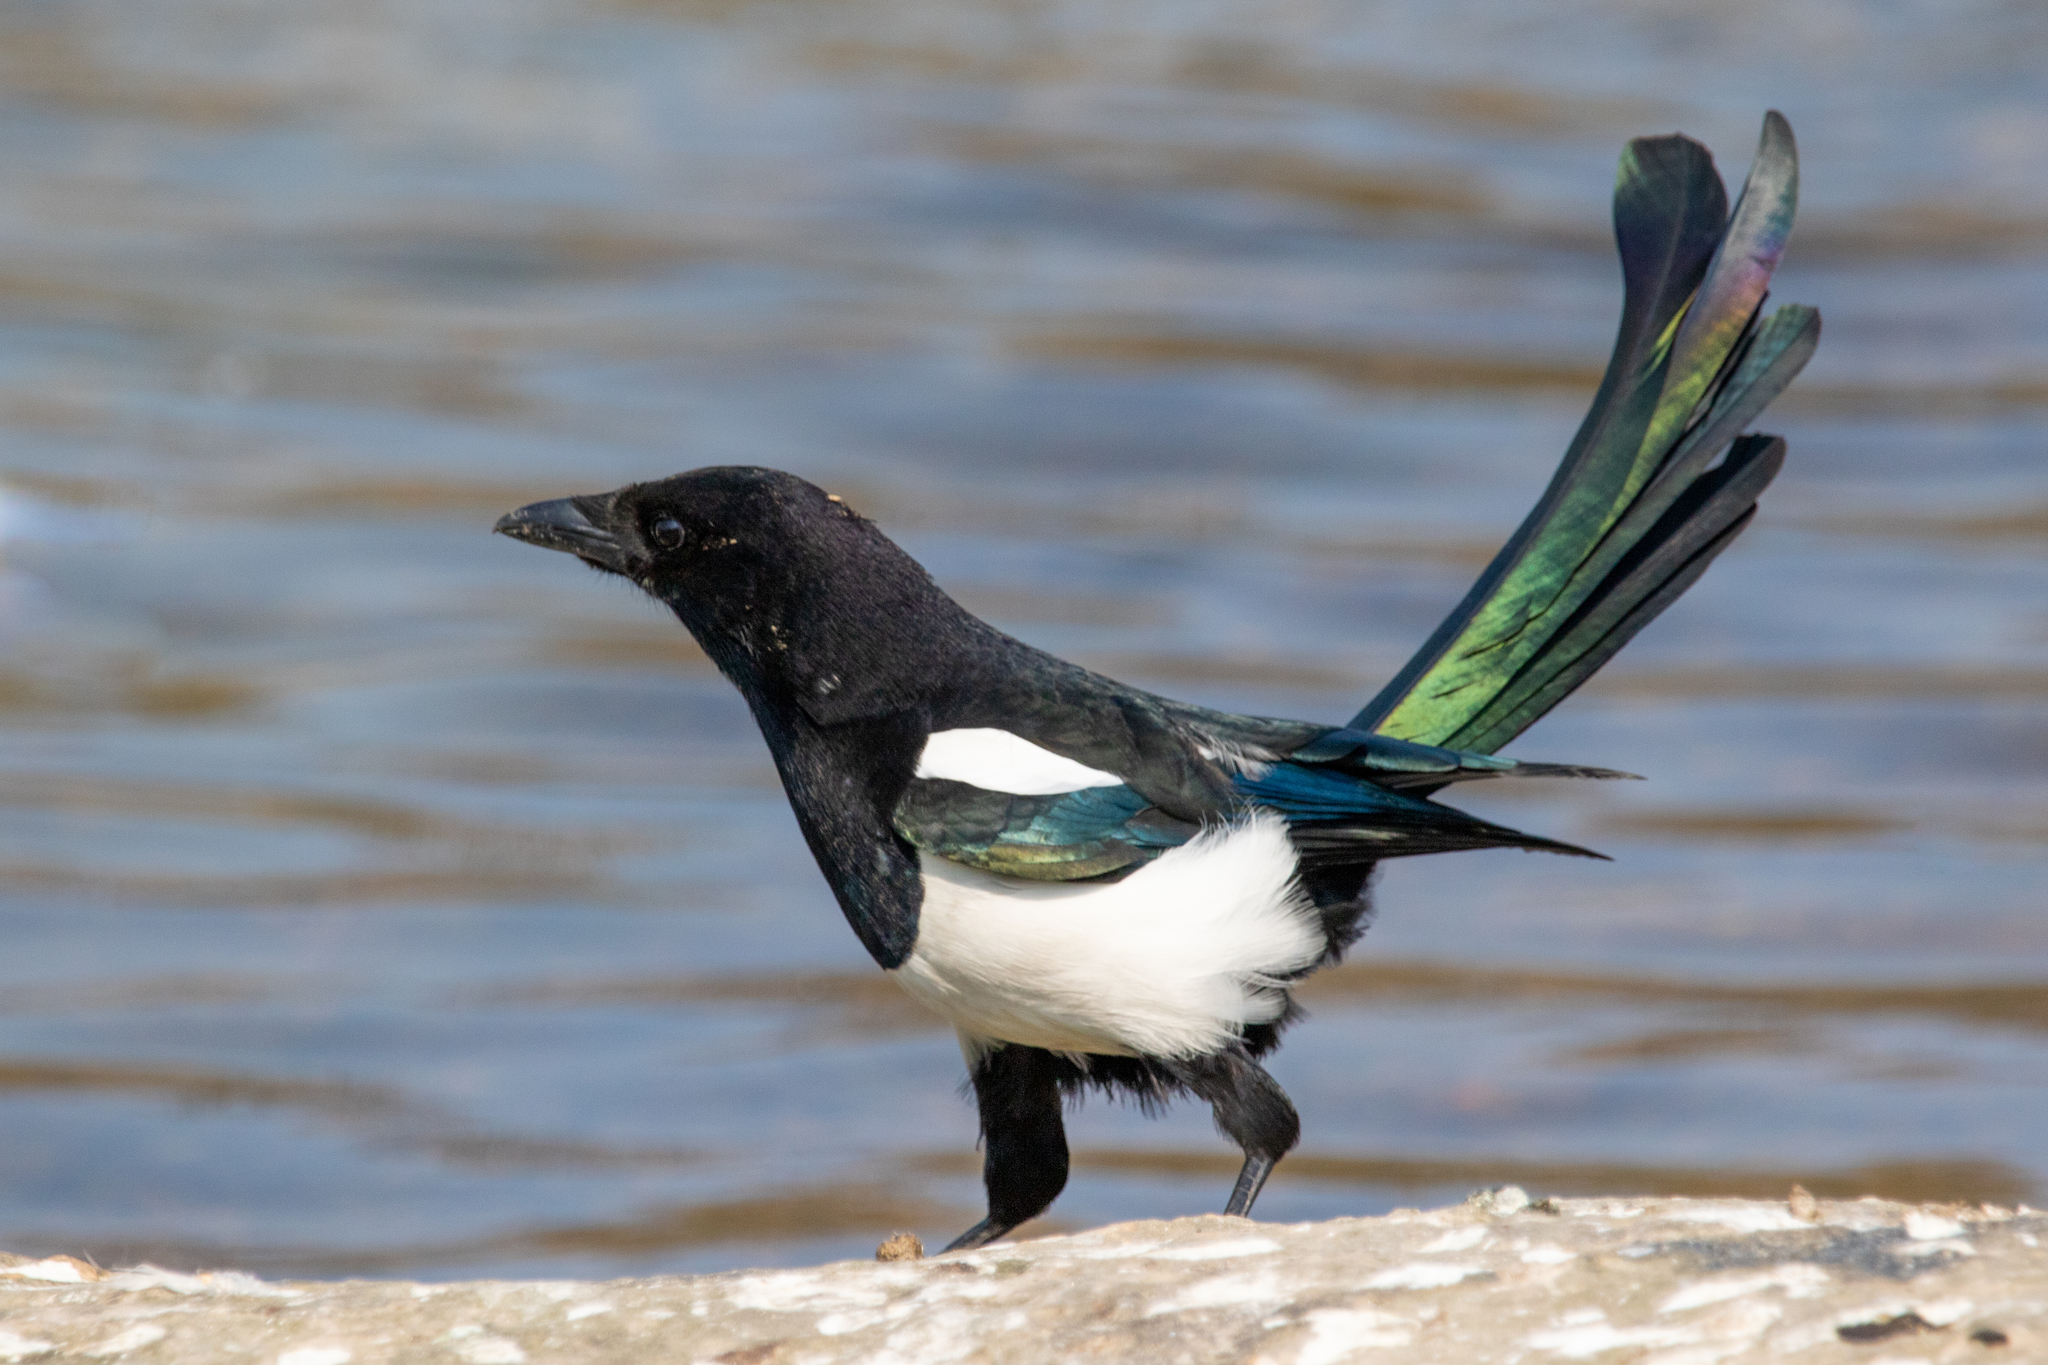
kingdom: Animalia
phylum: Chordata
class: Aves
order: Passeriformes
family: Corvidae
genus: Pica
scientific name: Pica pica
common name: Eurasian magpie
